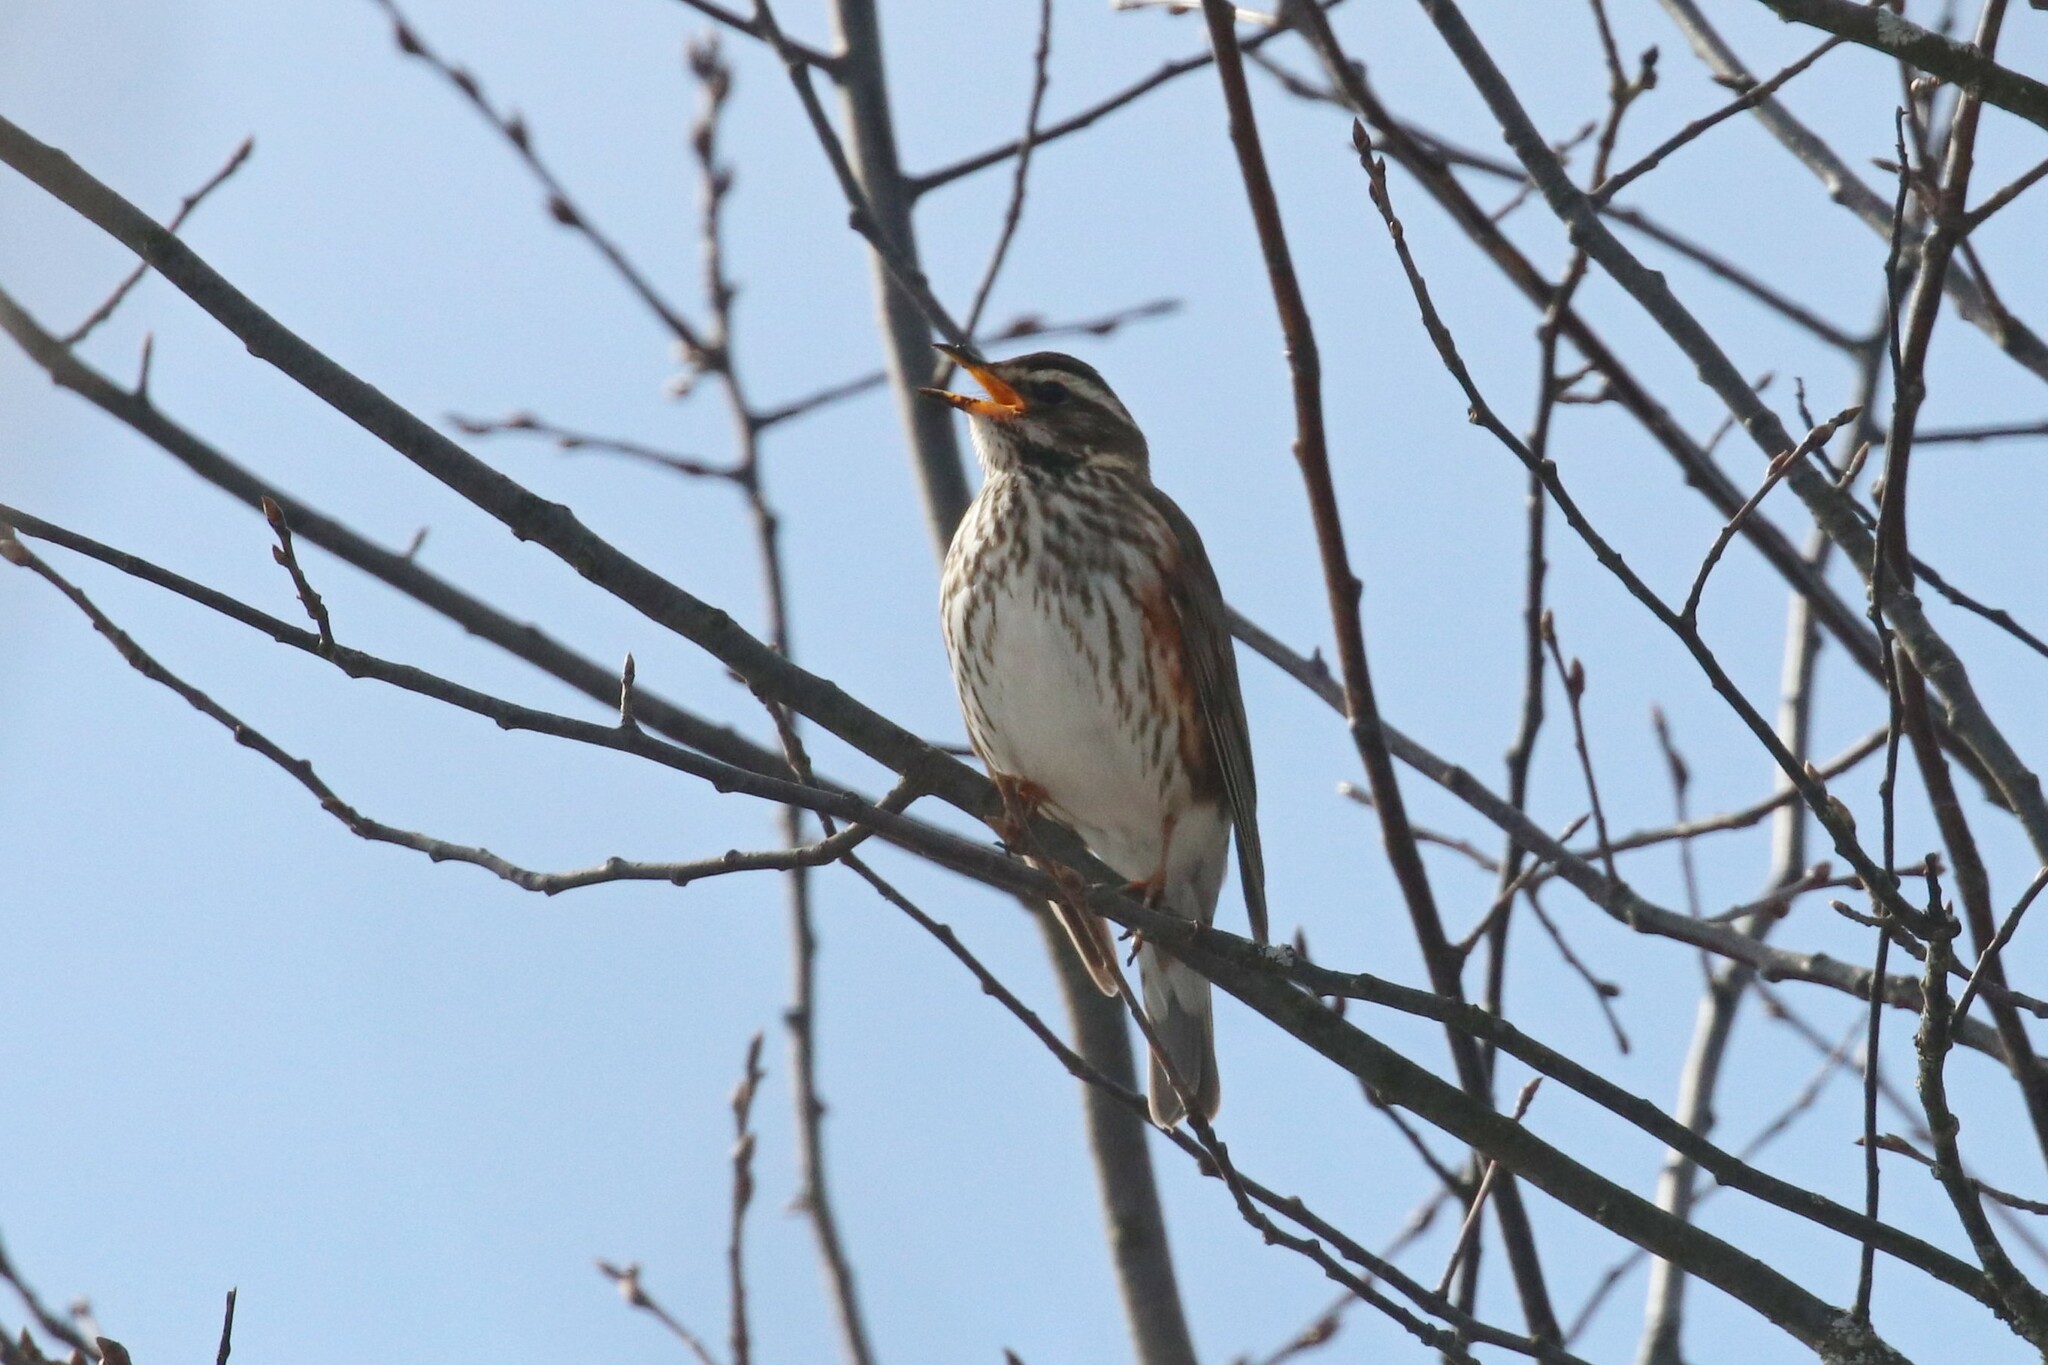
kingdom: Animalia
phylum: Chordata
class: Aves
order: Passeriformes
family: Turdidae
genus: Turdus
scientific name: Turdus iliacus
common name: Redwing
